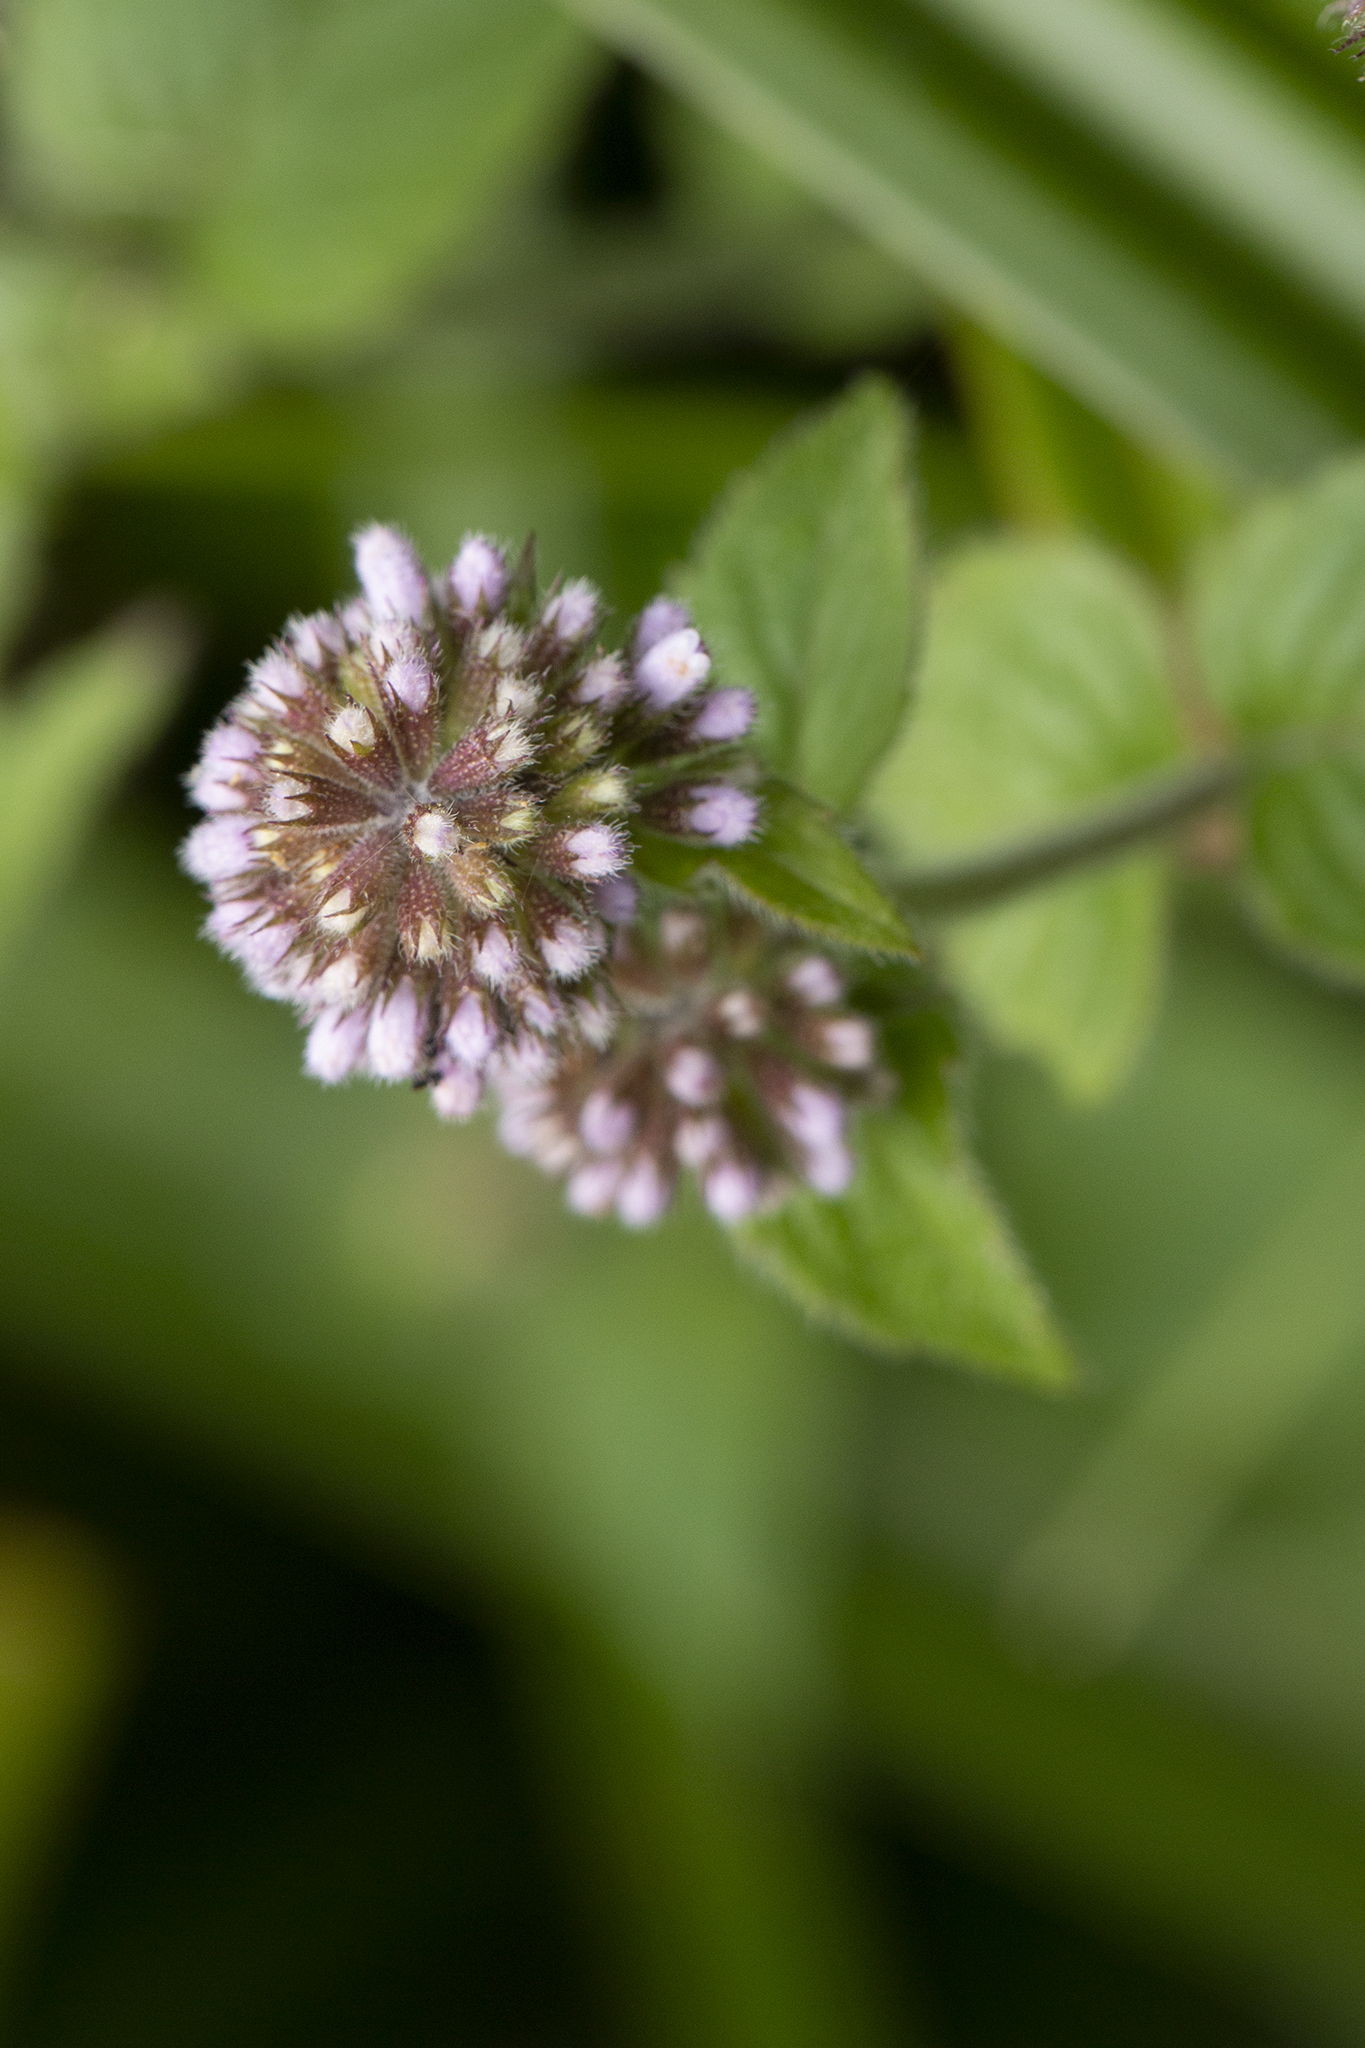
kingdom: Plantae
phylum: Tracheophyta
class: Magnoliopsida
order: Lamiales
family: Lamiaceae
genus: Mentha
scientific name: Mentha aquatica
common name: Water mint
